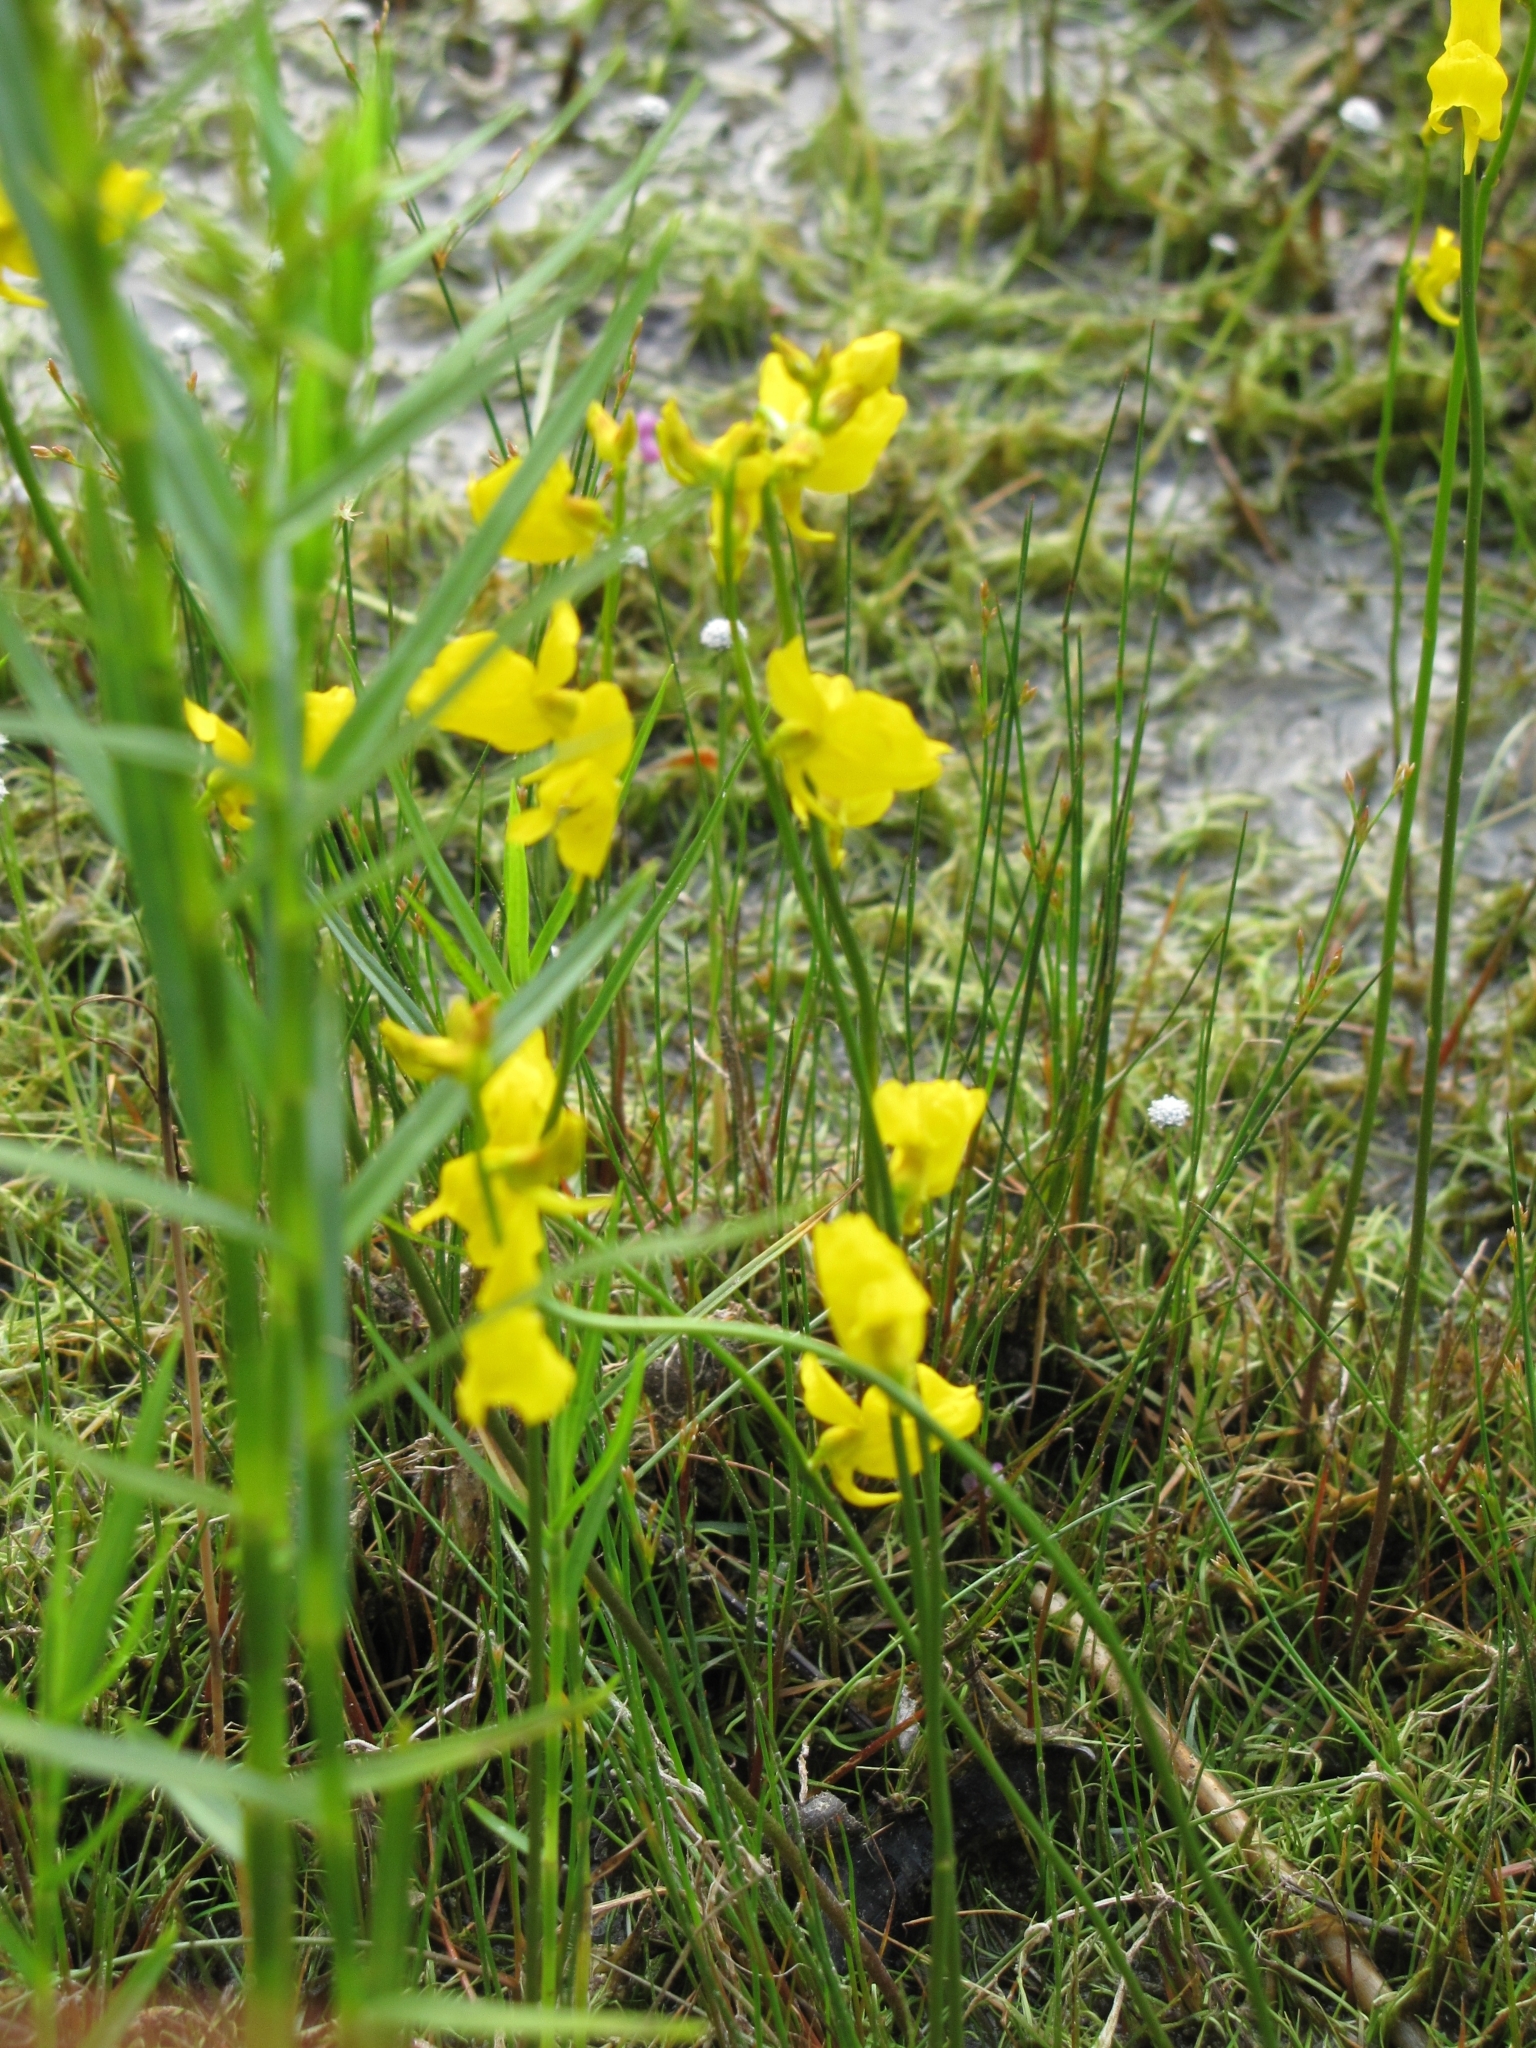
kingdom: Plantae
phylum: Tracheophyta
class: Magnoliopsida
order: Lamiales
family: Lentibulariaceae
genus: Utricularia
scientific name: Utricularia cornuta
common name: Horned bladderwort
